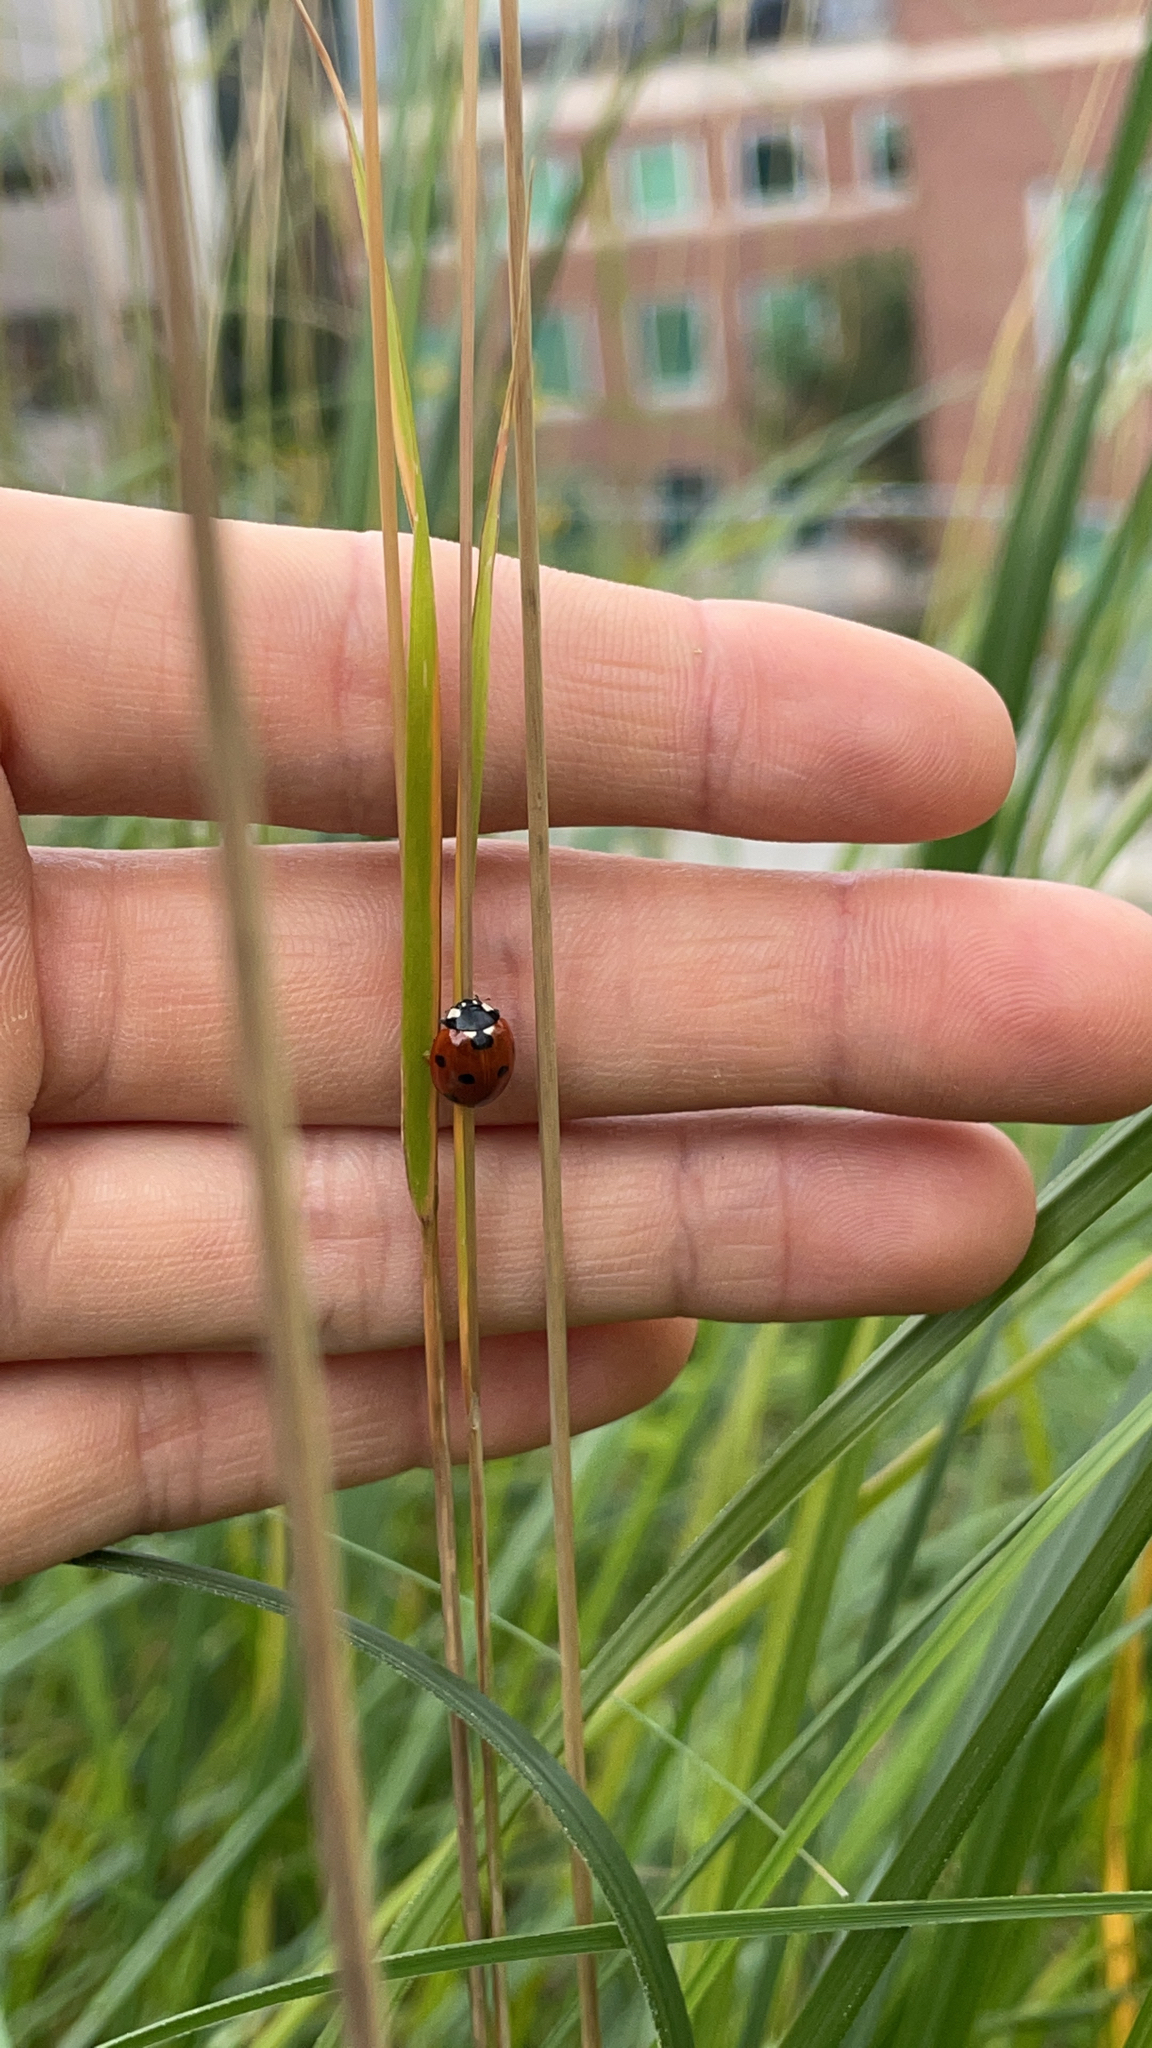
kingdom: Animalia
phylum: Arthropoda
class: Insecta
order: Coleoptera
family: Coccinellidae
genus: Coccinella
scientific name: Coccinella septempunctata
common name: Sevenspotted lady beetle
